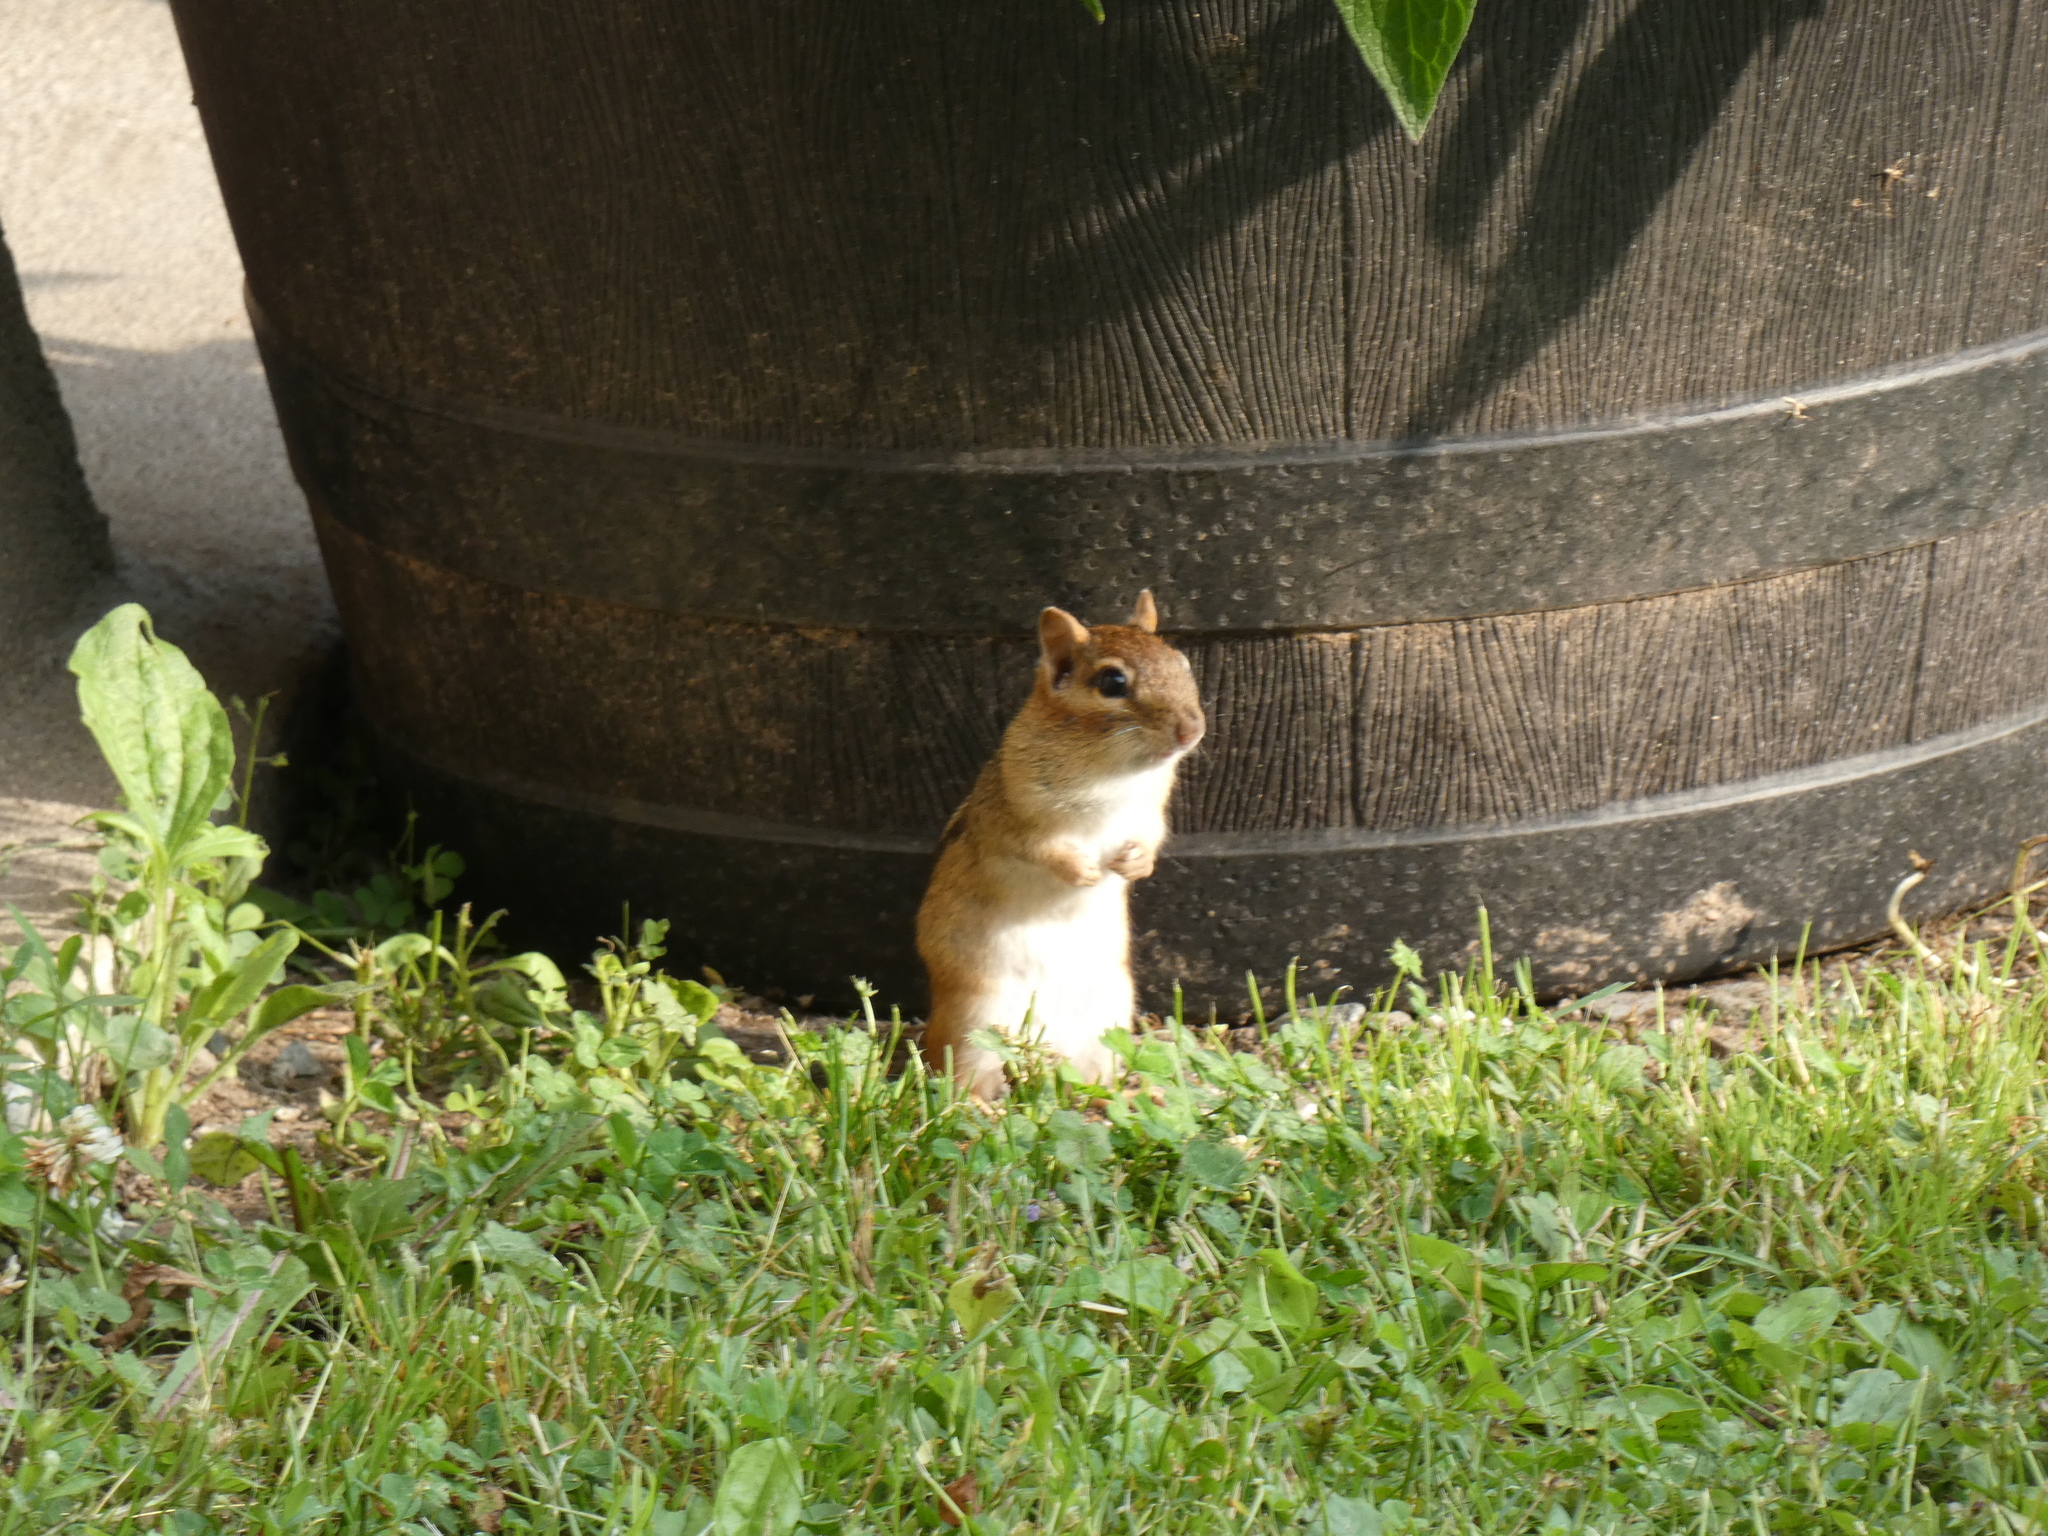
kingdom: Animalia
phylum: Chordata
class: Mammalia
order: Rodentia
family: Sciuridae
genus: Tamias
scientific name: Tamias striatus
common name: Eastern chipmunk
